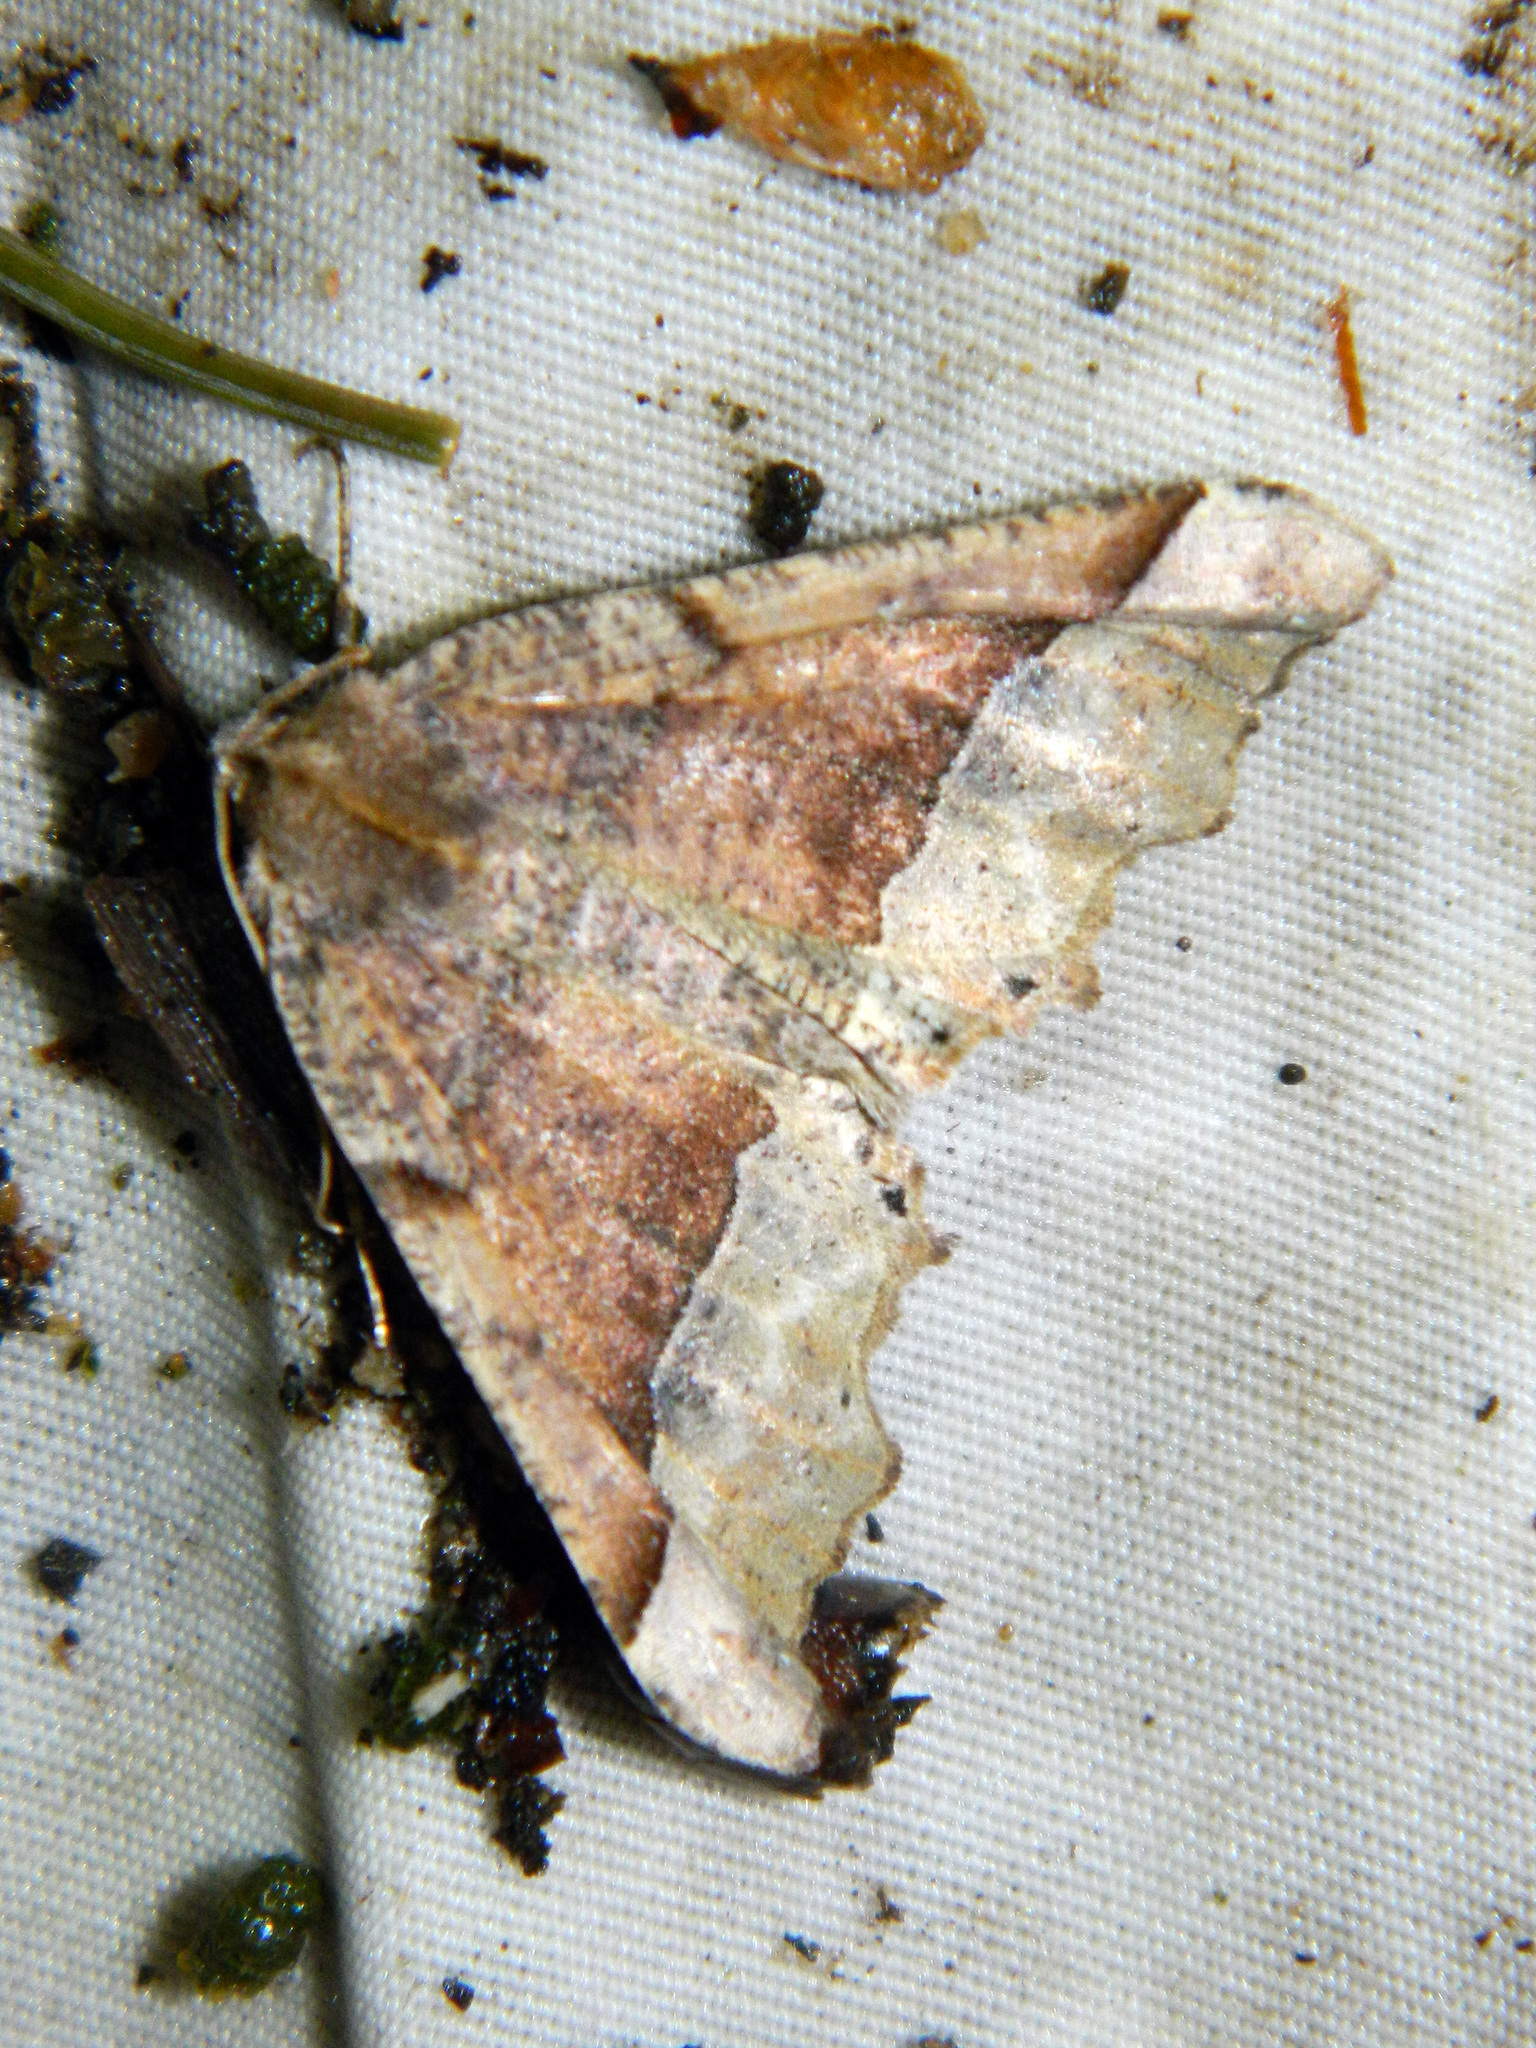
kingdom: Animalia
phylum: Arthropoda
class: Insecta
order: Lepidoptera
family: Geometridae
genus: Pero
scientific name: Pero morrisonaria
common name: Morrison's pero
